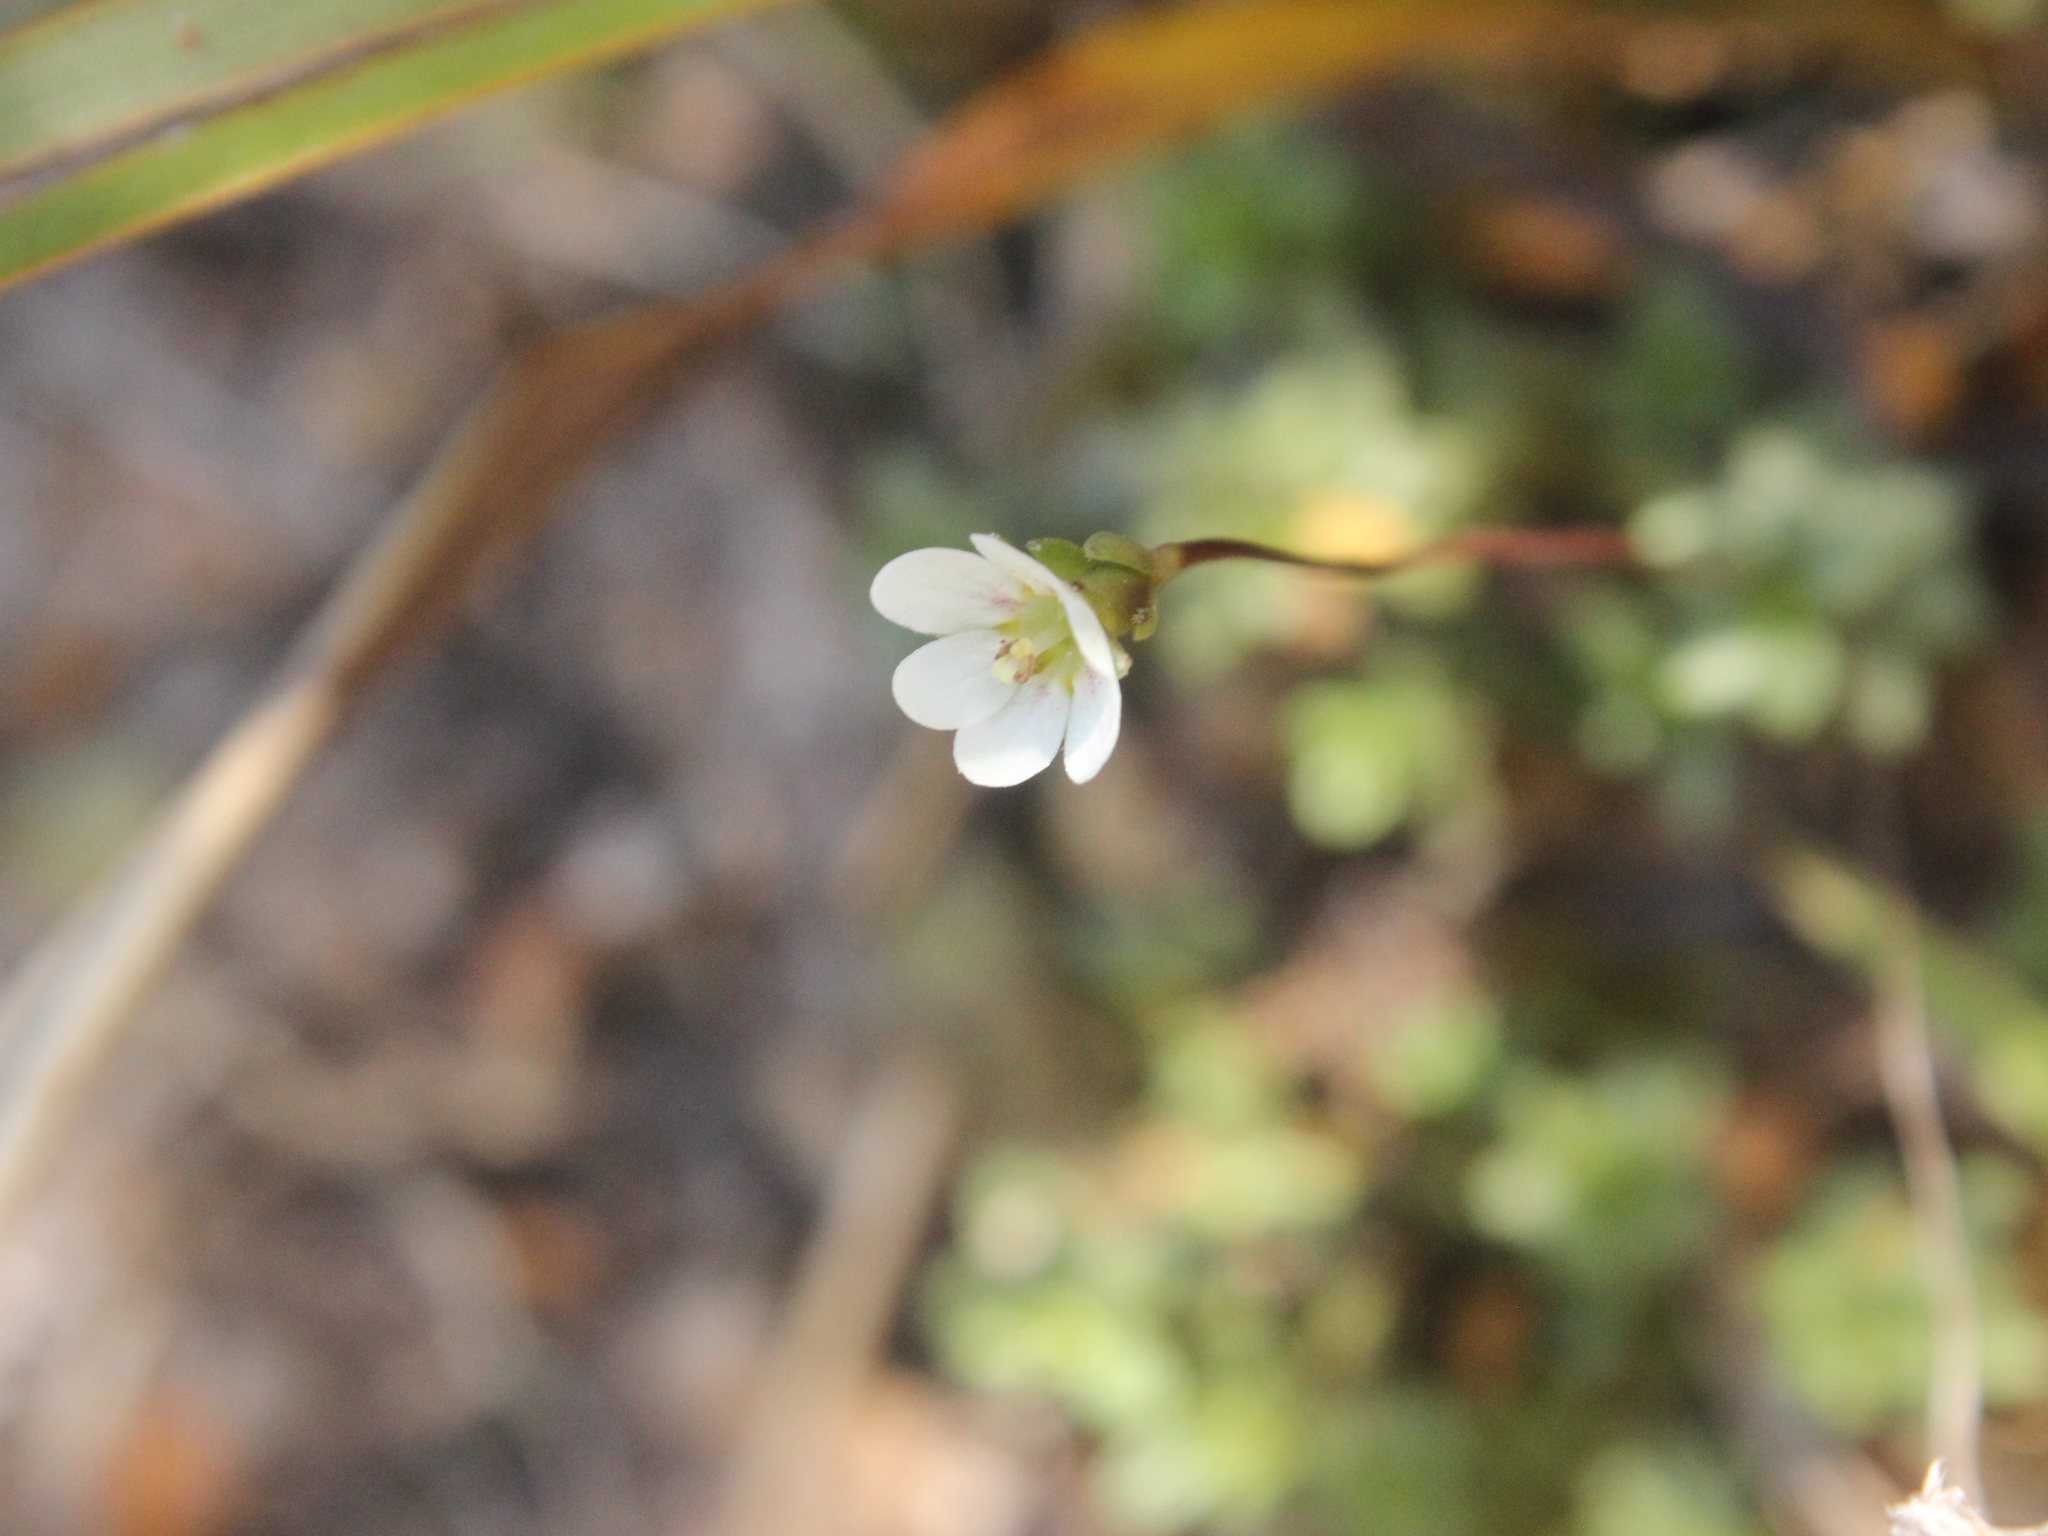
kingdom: Plantae
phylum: Tracheophyta
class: Magnoliopsida
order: Asterales
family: Stylidiaceae
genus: Forstera
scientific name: Forstera tenella
